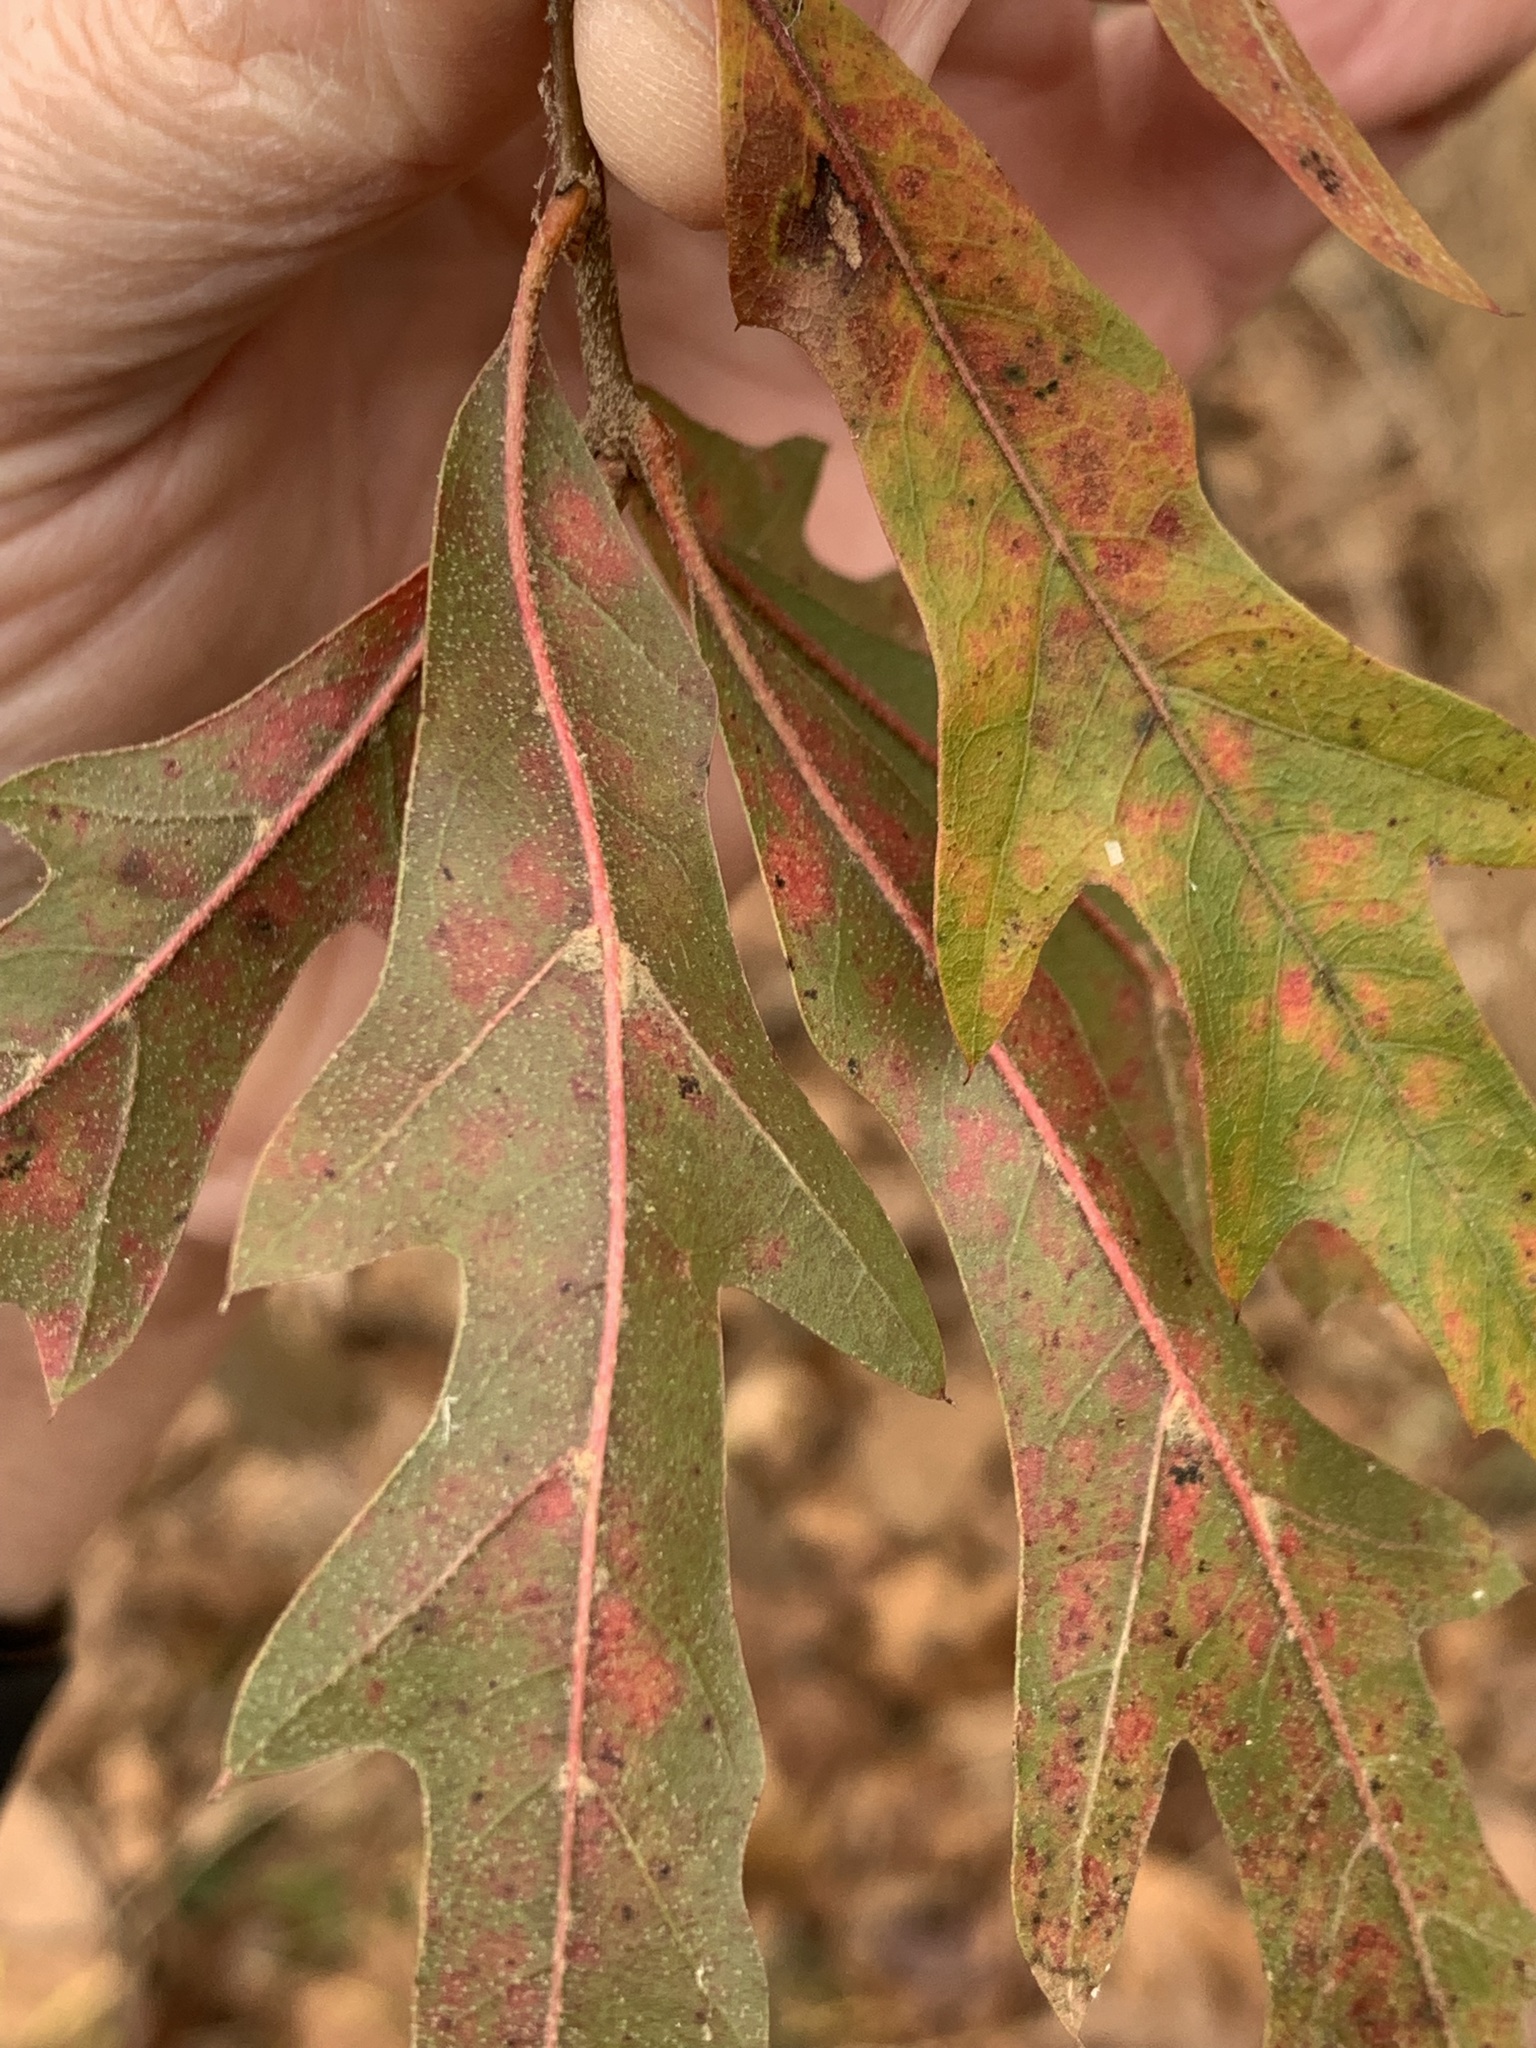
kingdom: Plantae
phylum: Tracheophyta
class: Magnoliopsida
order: Fagales
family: Fagaceae
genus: Quercus
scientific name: Quercus filialis
